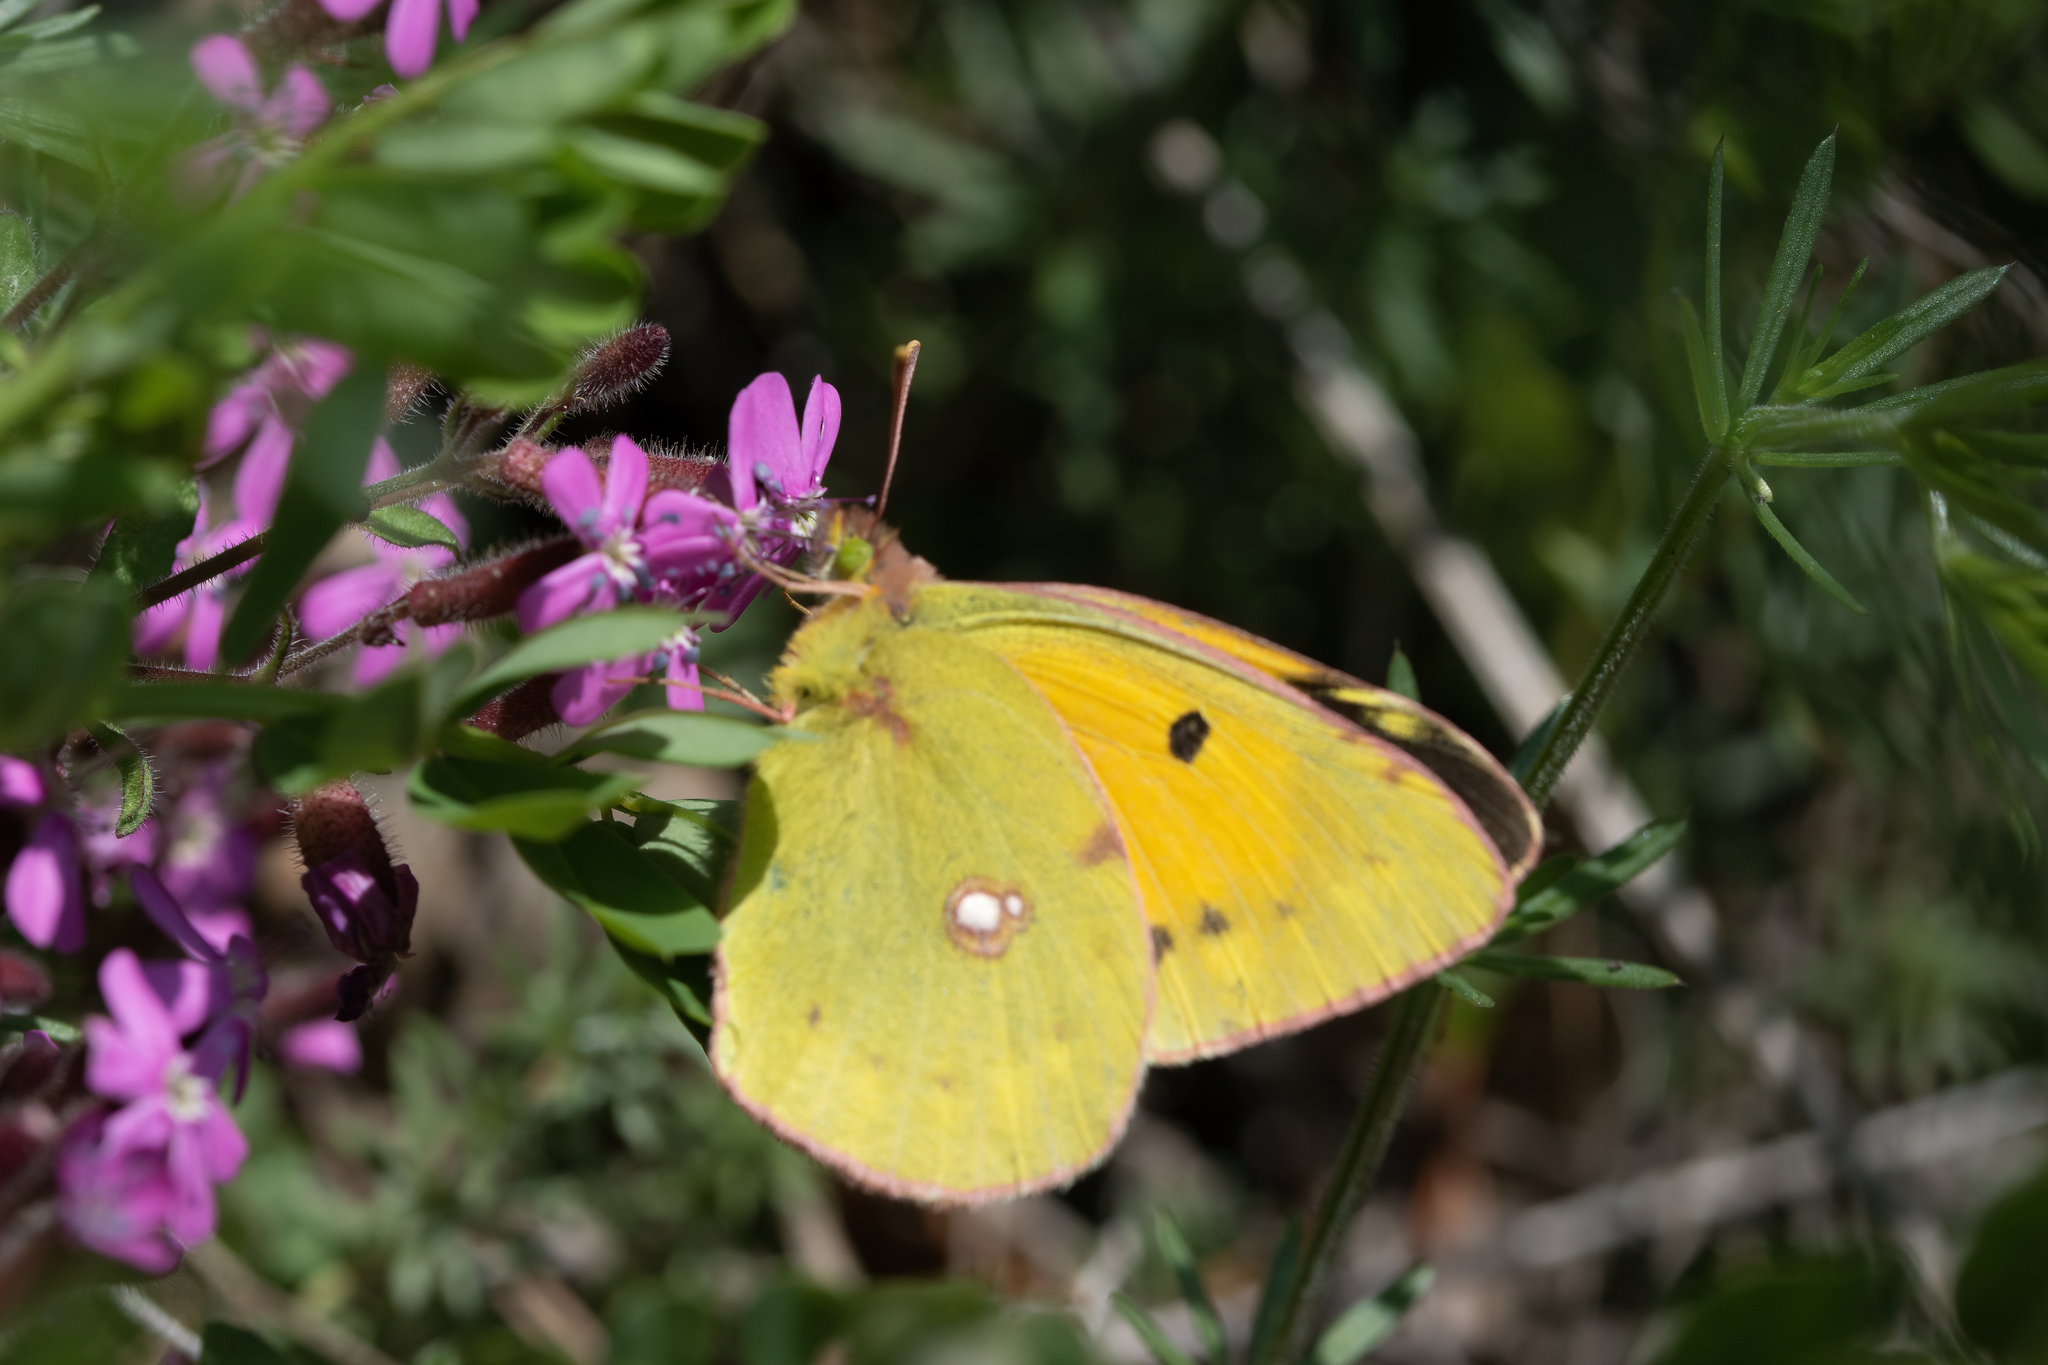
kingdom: Animalia
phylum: Arthropoda
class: Insecta
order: Lepidoptera
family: Pieridae
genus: Colias
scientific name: Colias croceus
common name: Clouded yellow
